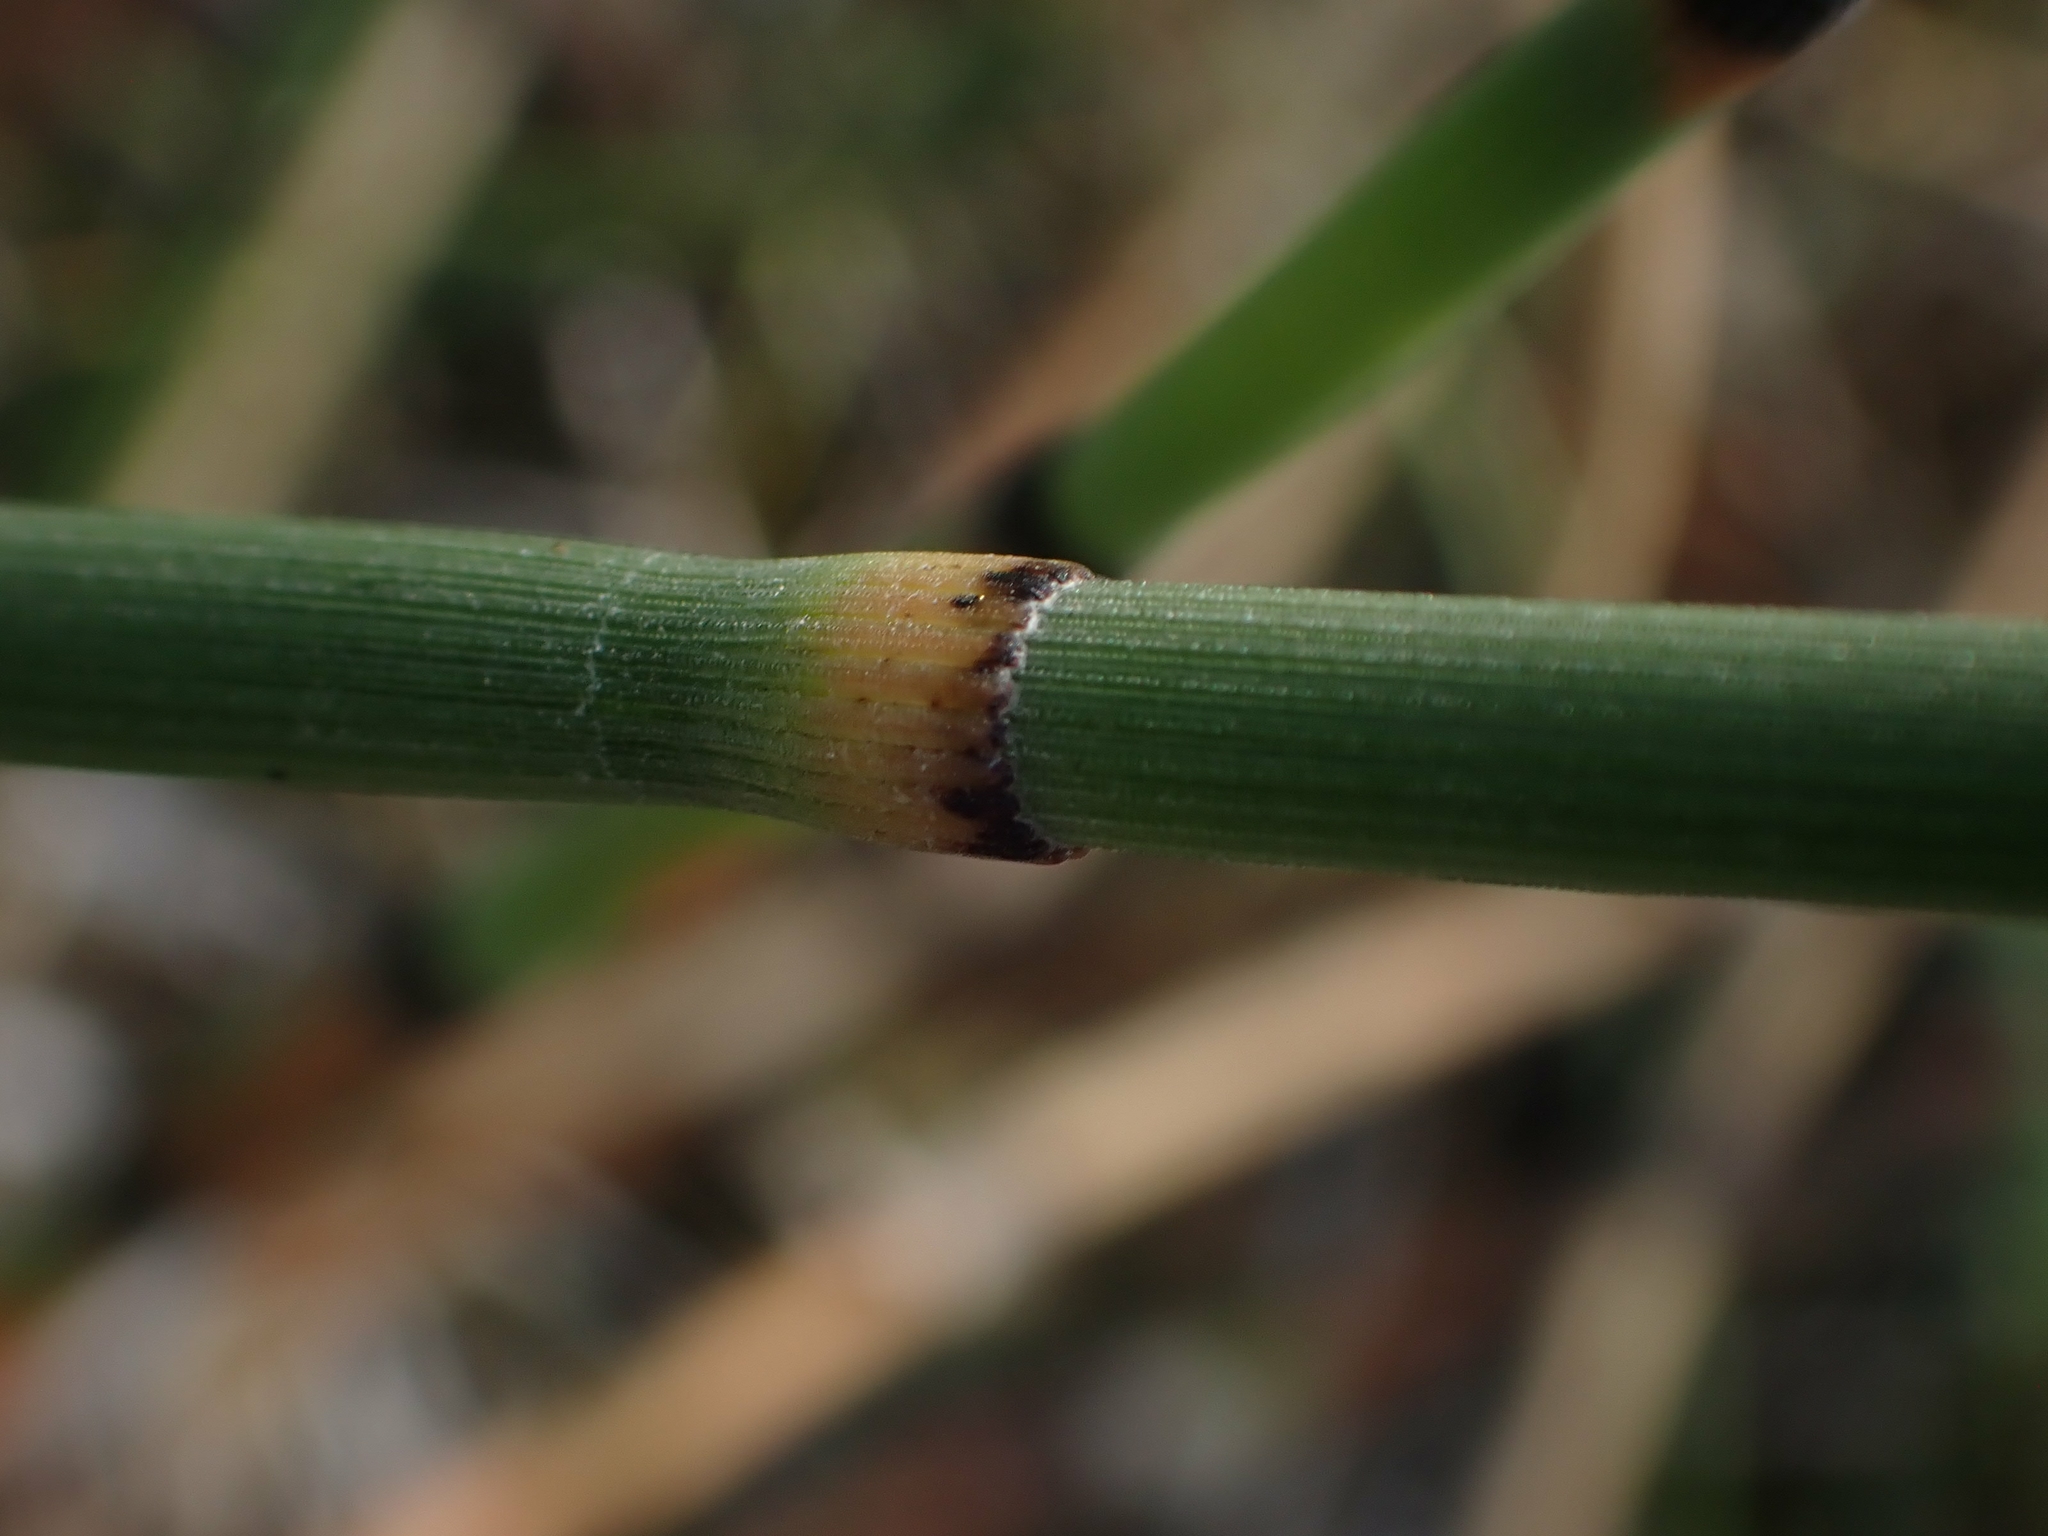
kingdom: Plantae
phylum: Tracheophyta
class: Polypodiopsida
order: Equisetales
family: Equisetaceae
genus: Equisetum
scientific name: Equisetum laevigatum
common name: Smooth scouring-rush
